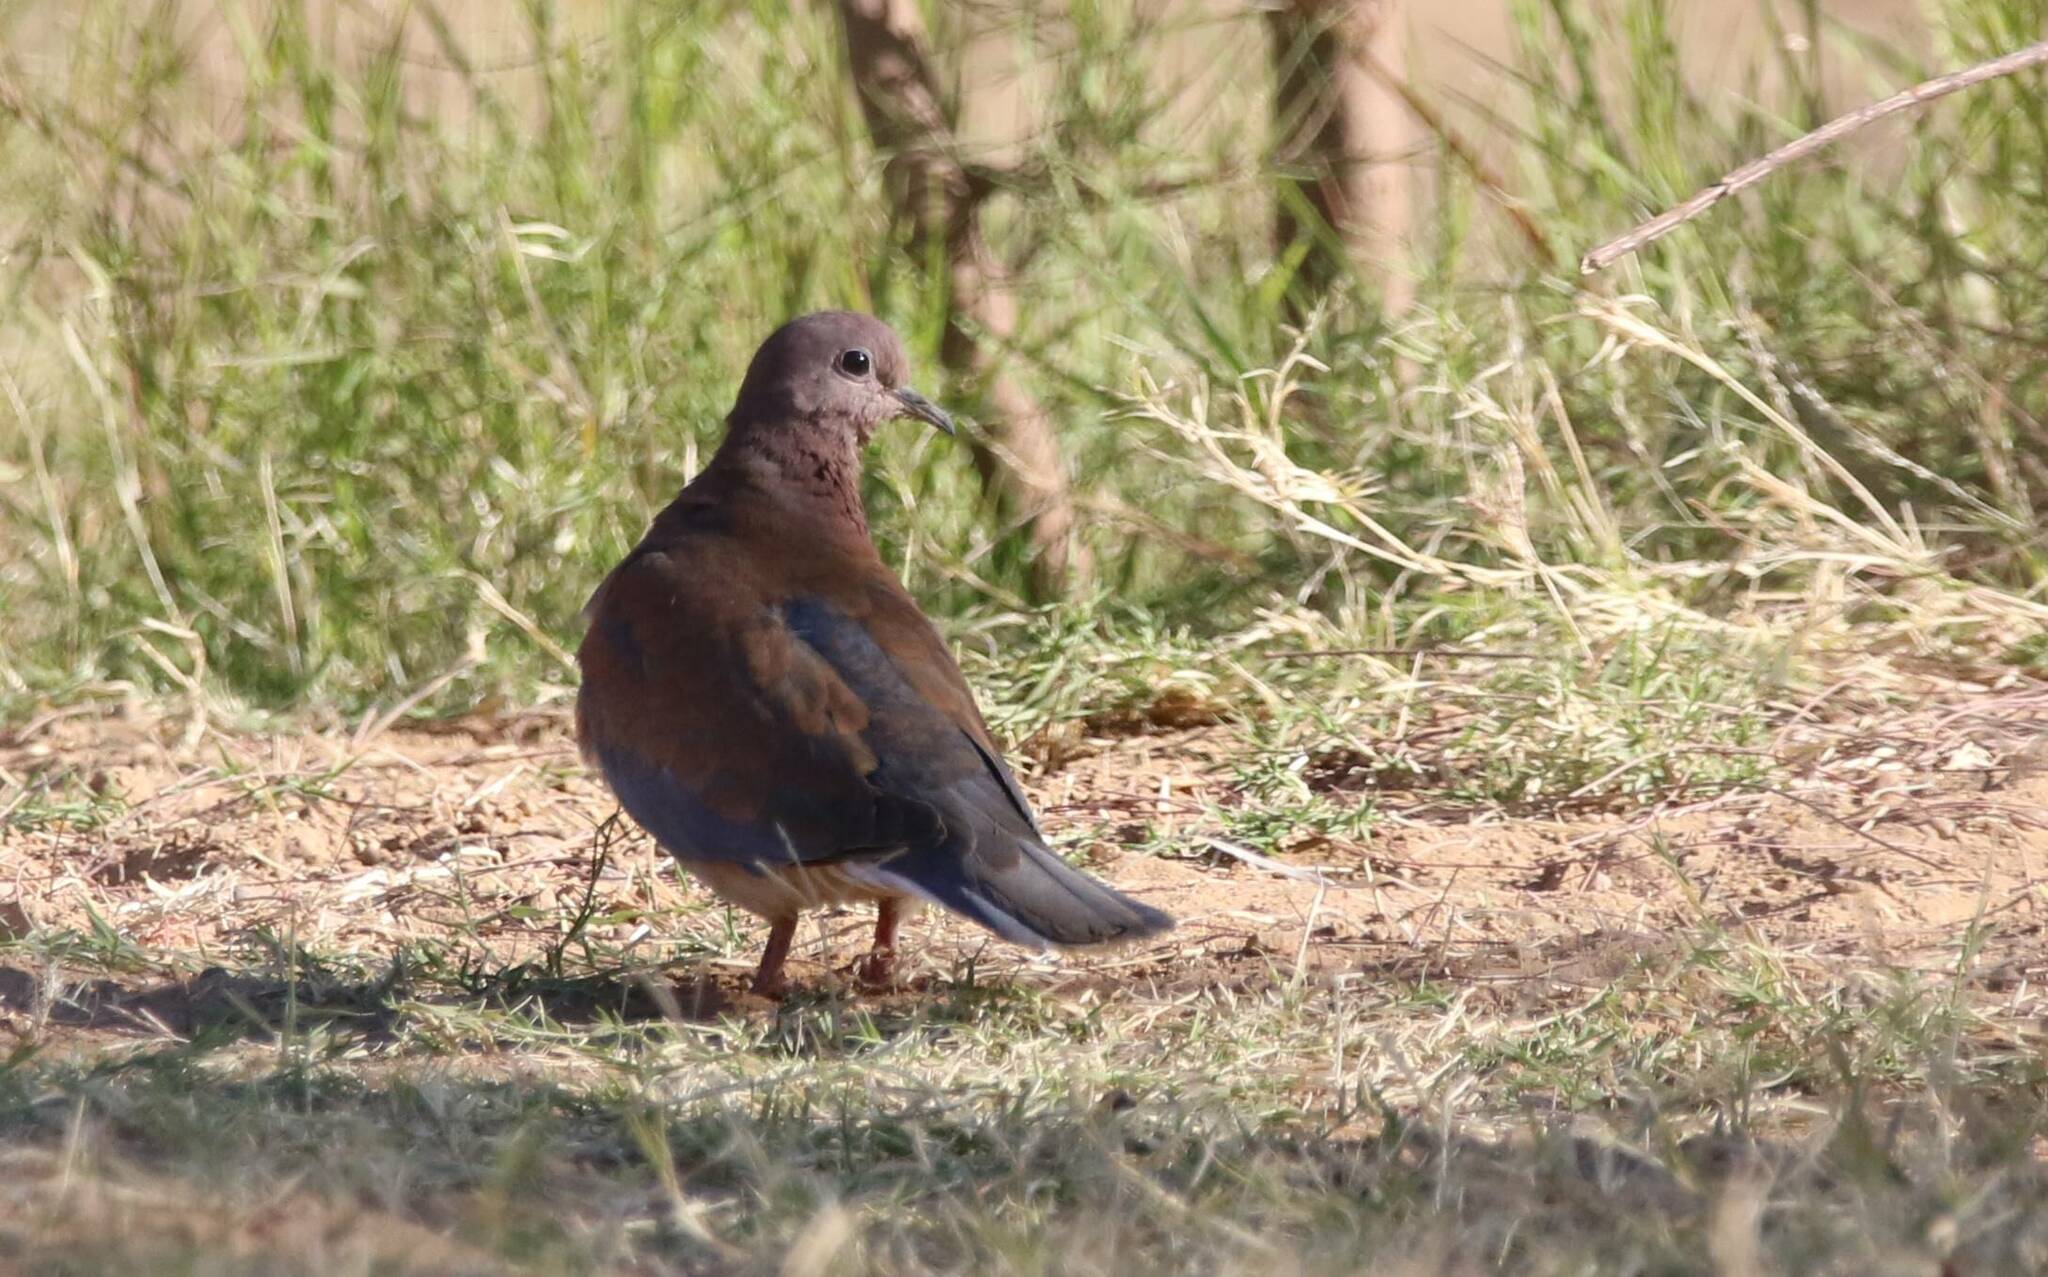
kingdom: Animalia
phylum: Chordata
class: Aves
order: Columbiformes
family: Columbidae
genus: Spilopelia
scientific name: Spilopelia senegalensis
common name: Laughing dove
